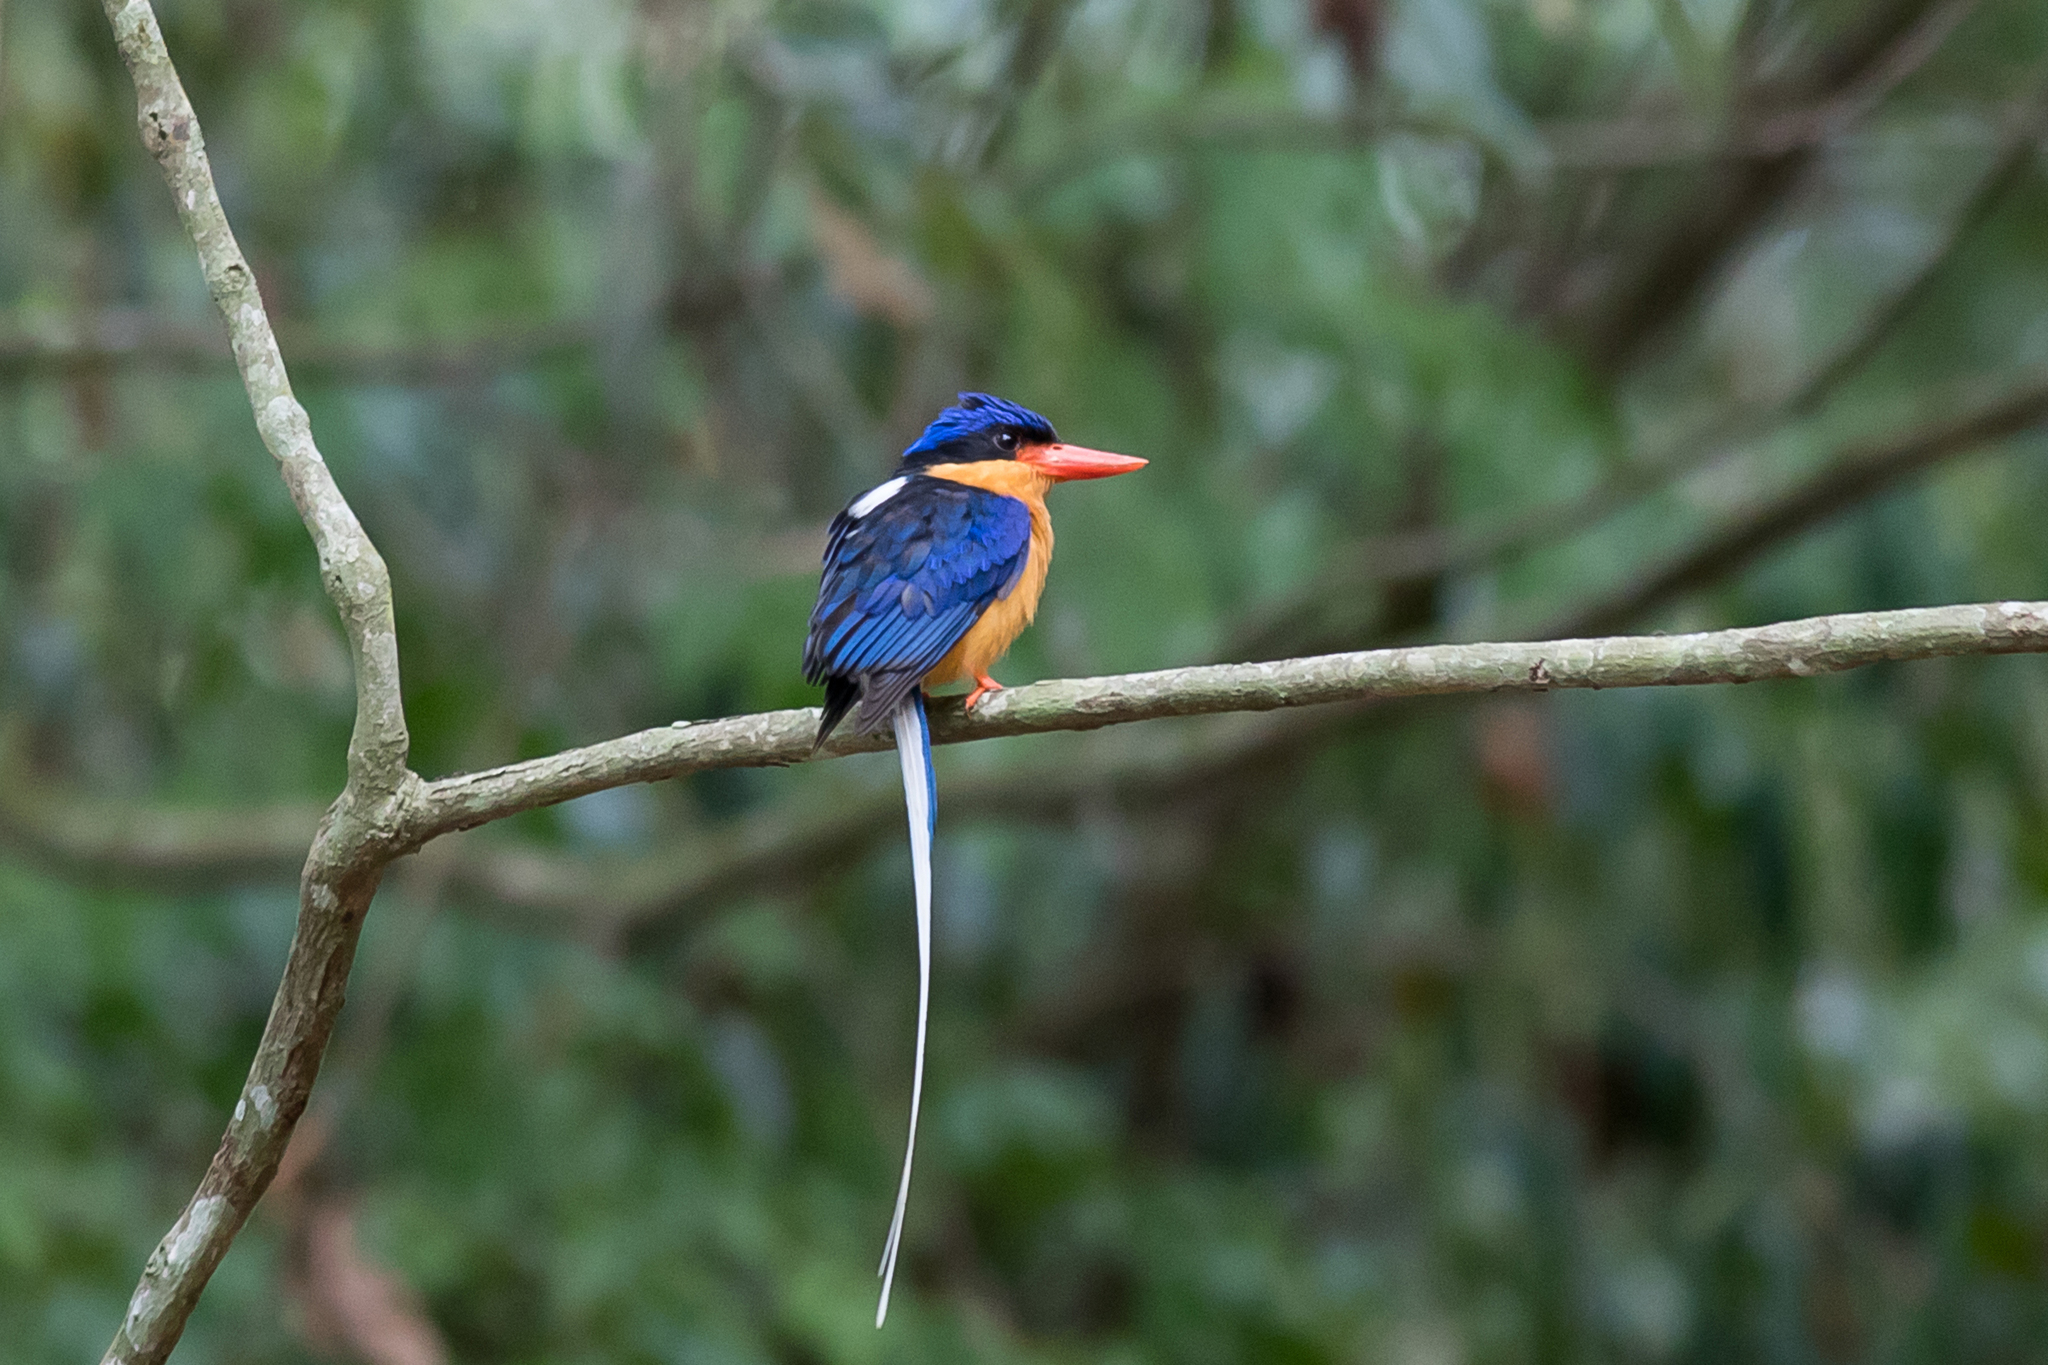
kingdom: Animalia
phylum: Chordata
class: Aves
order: Coraciiformes
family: Alcedinidae
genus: Tanysiptera
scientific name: Tanysiptera sylvia
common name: Buff-breasted paradise kingfisher
